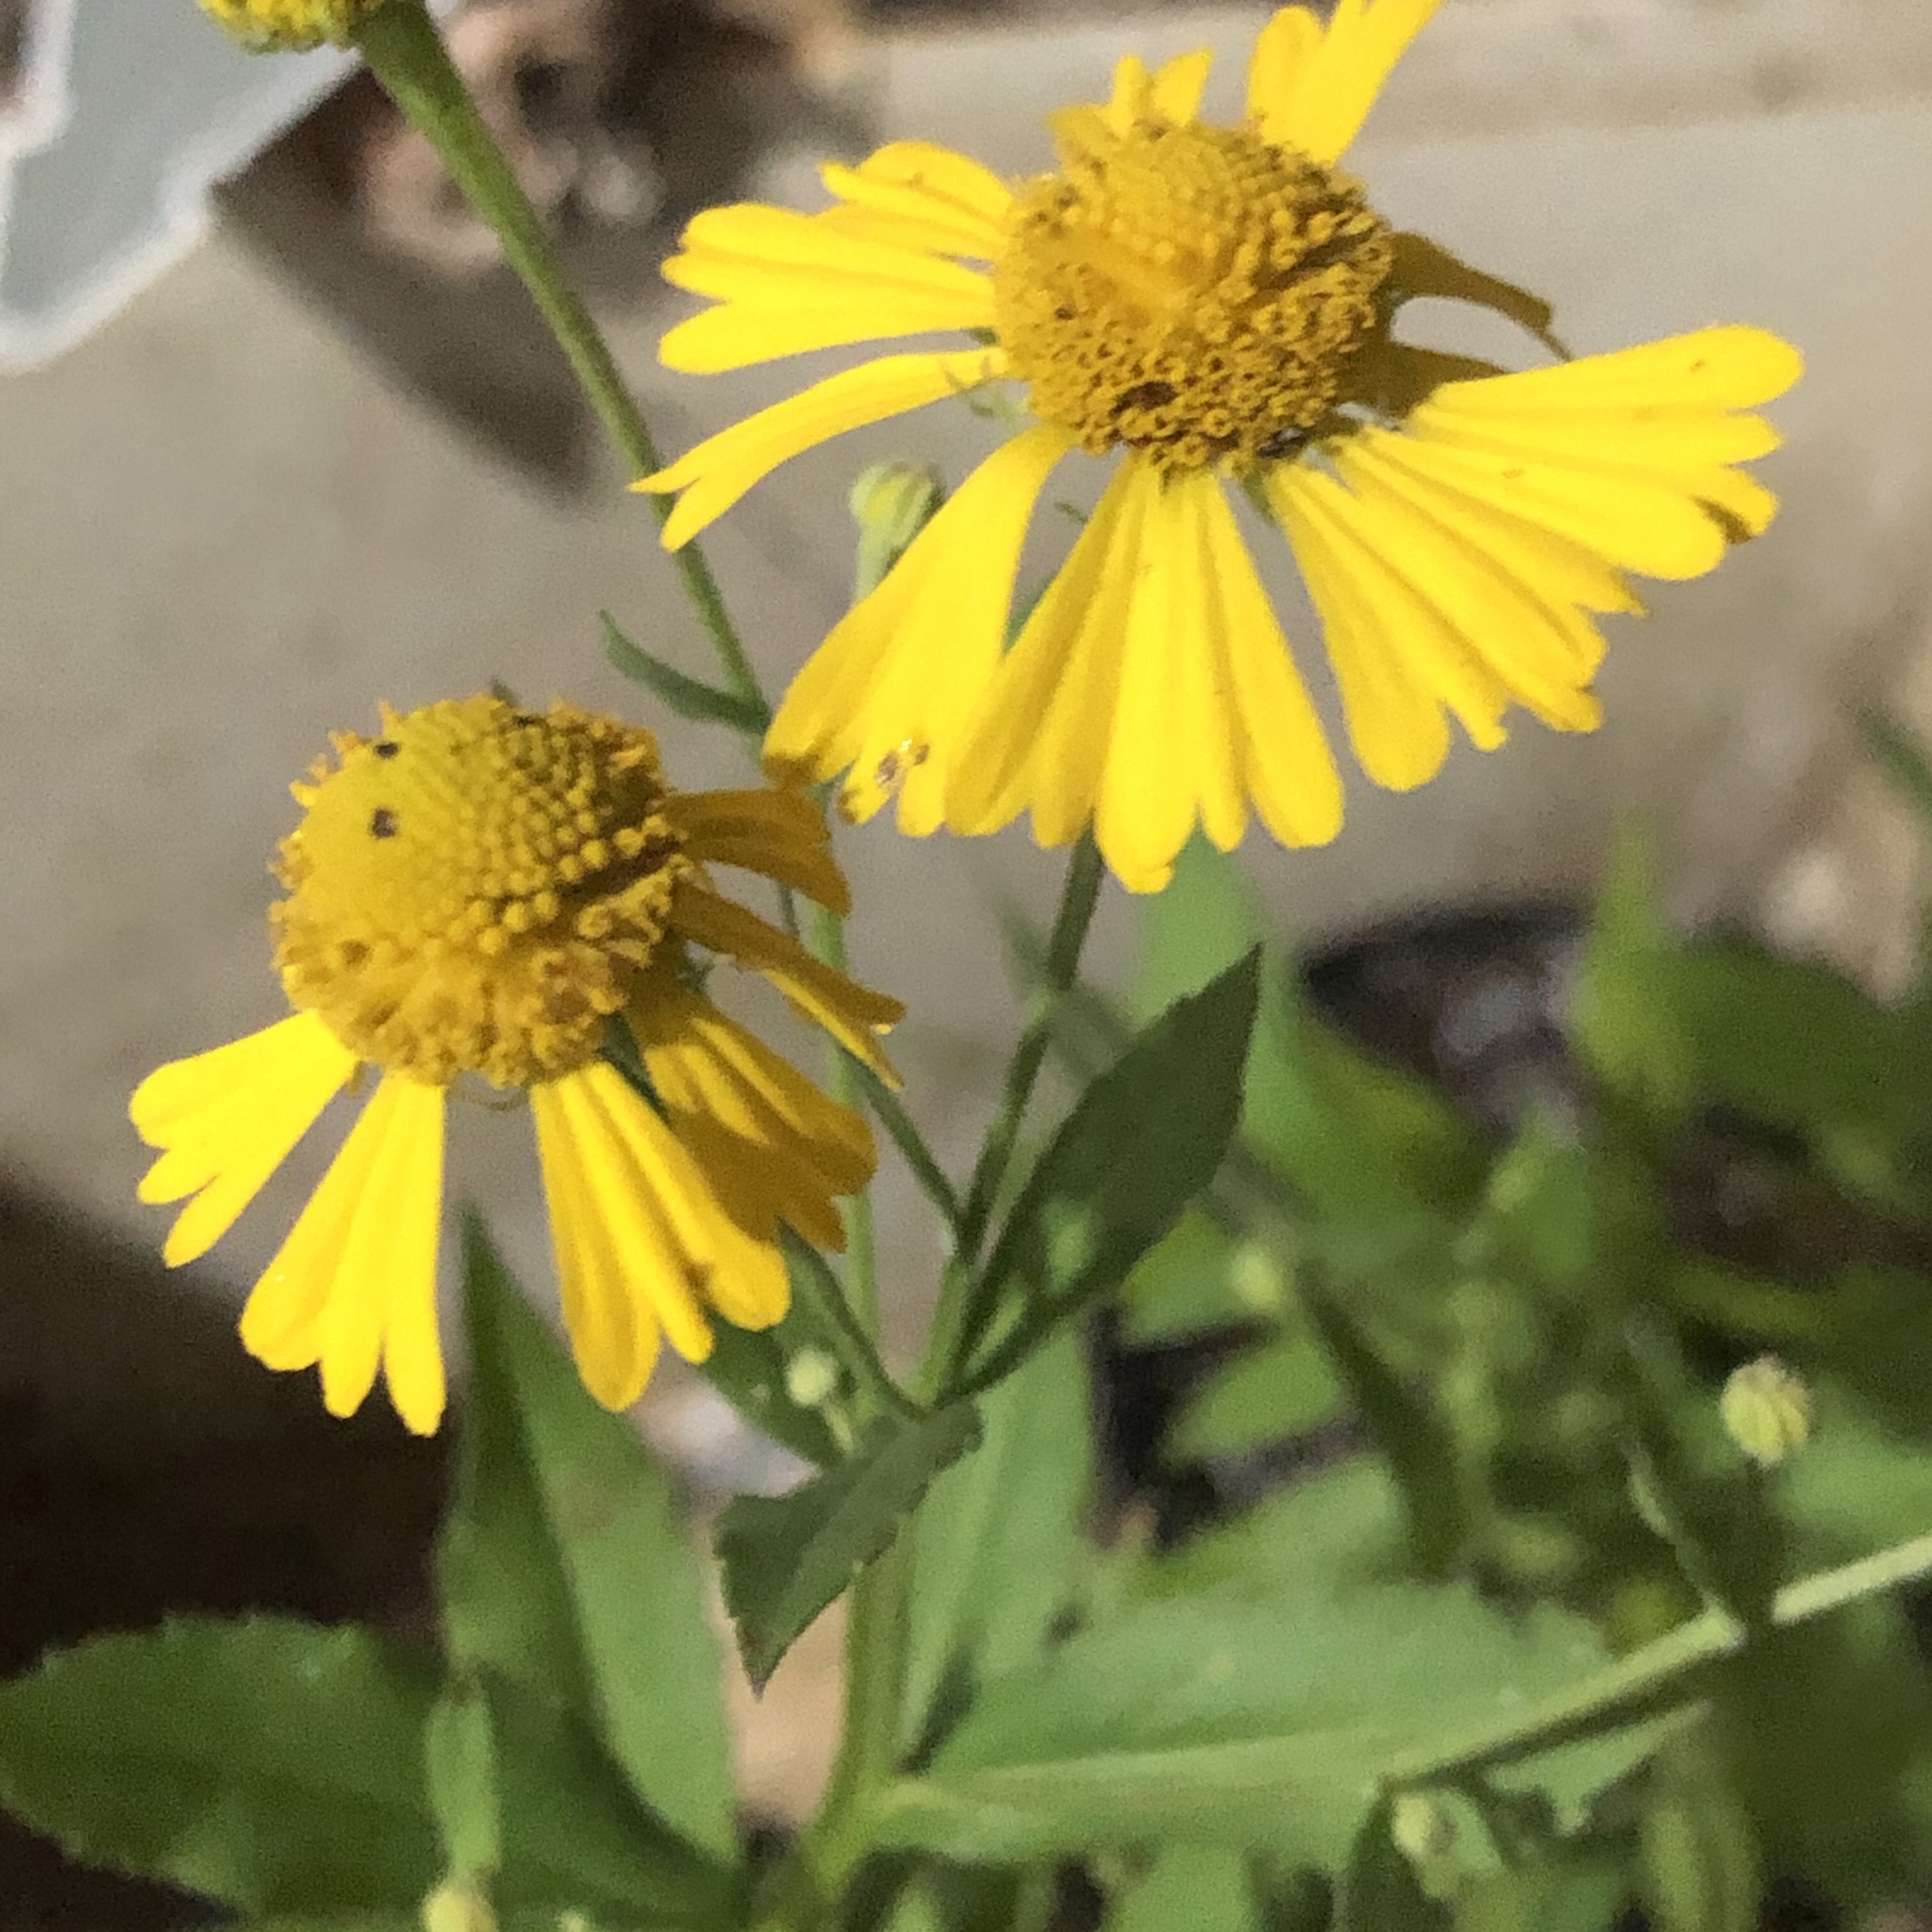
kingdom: Plantae
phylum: Tracheophyta
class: Magnoliopsida
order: Asterales
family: Asteraceae
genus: Helenium
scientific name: Helenium autumnale
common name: Sneezeweed
